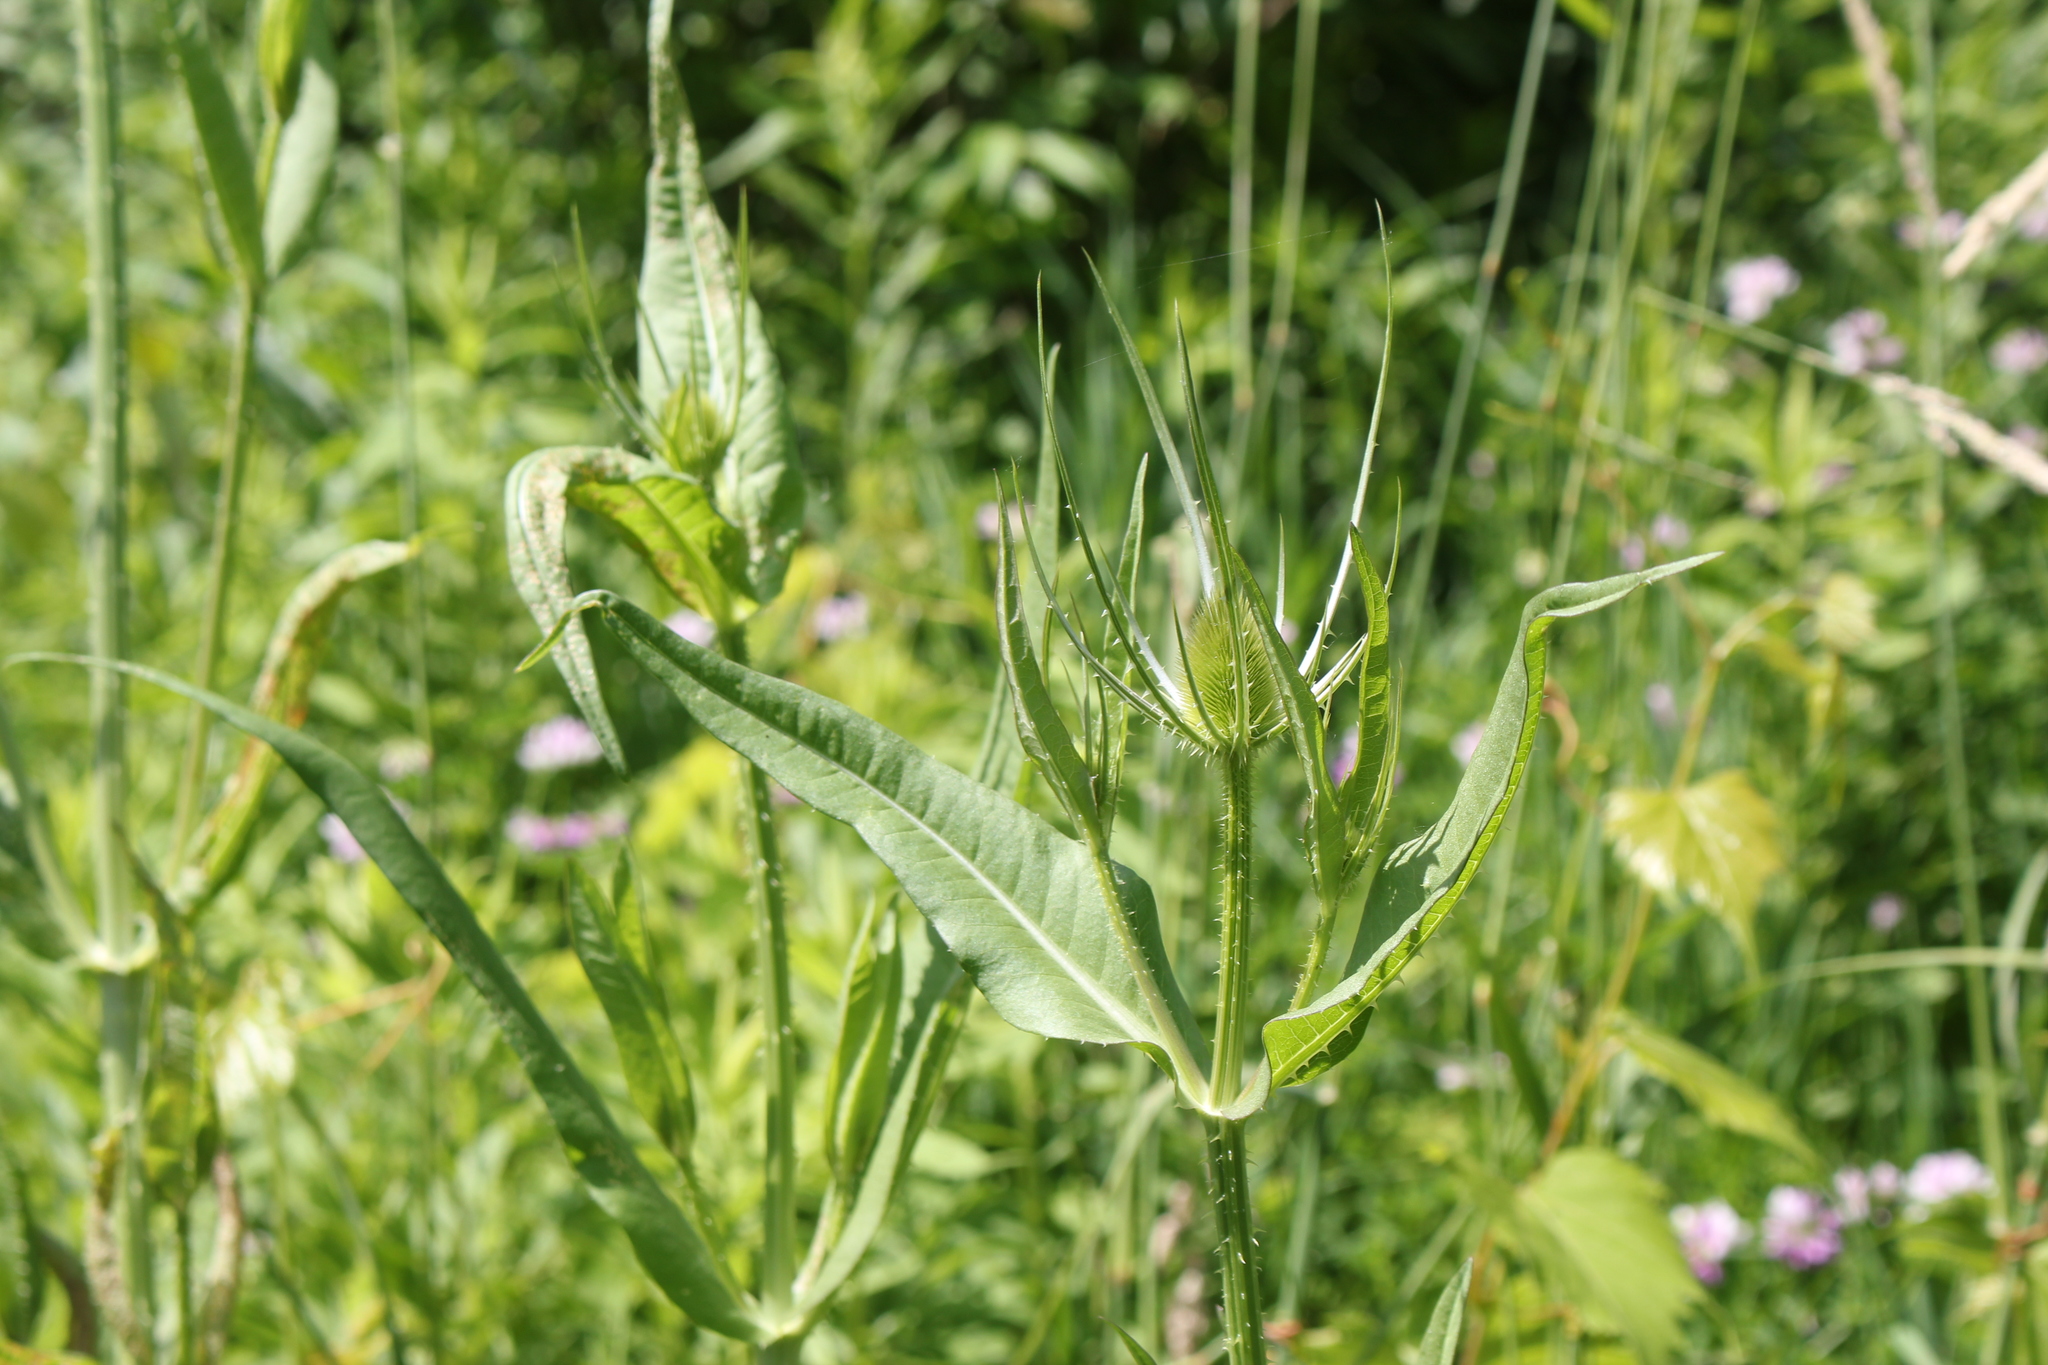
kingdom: Plantae
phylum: Tracheophyta
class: Magnoliopsida
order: Dipsacales
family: Caprifoliaceae
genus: Dipsacus
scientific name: Dipsacus fullonum
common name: Teasel
